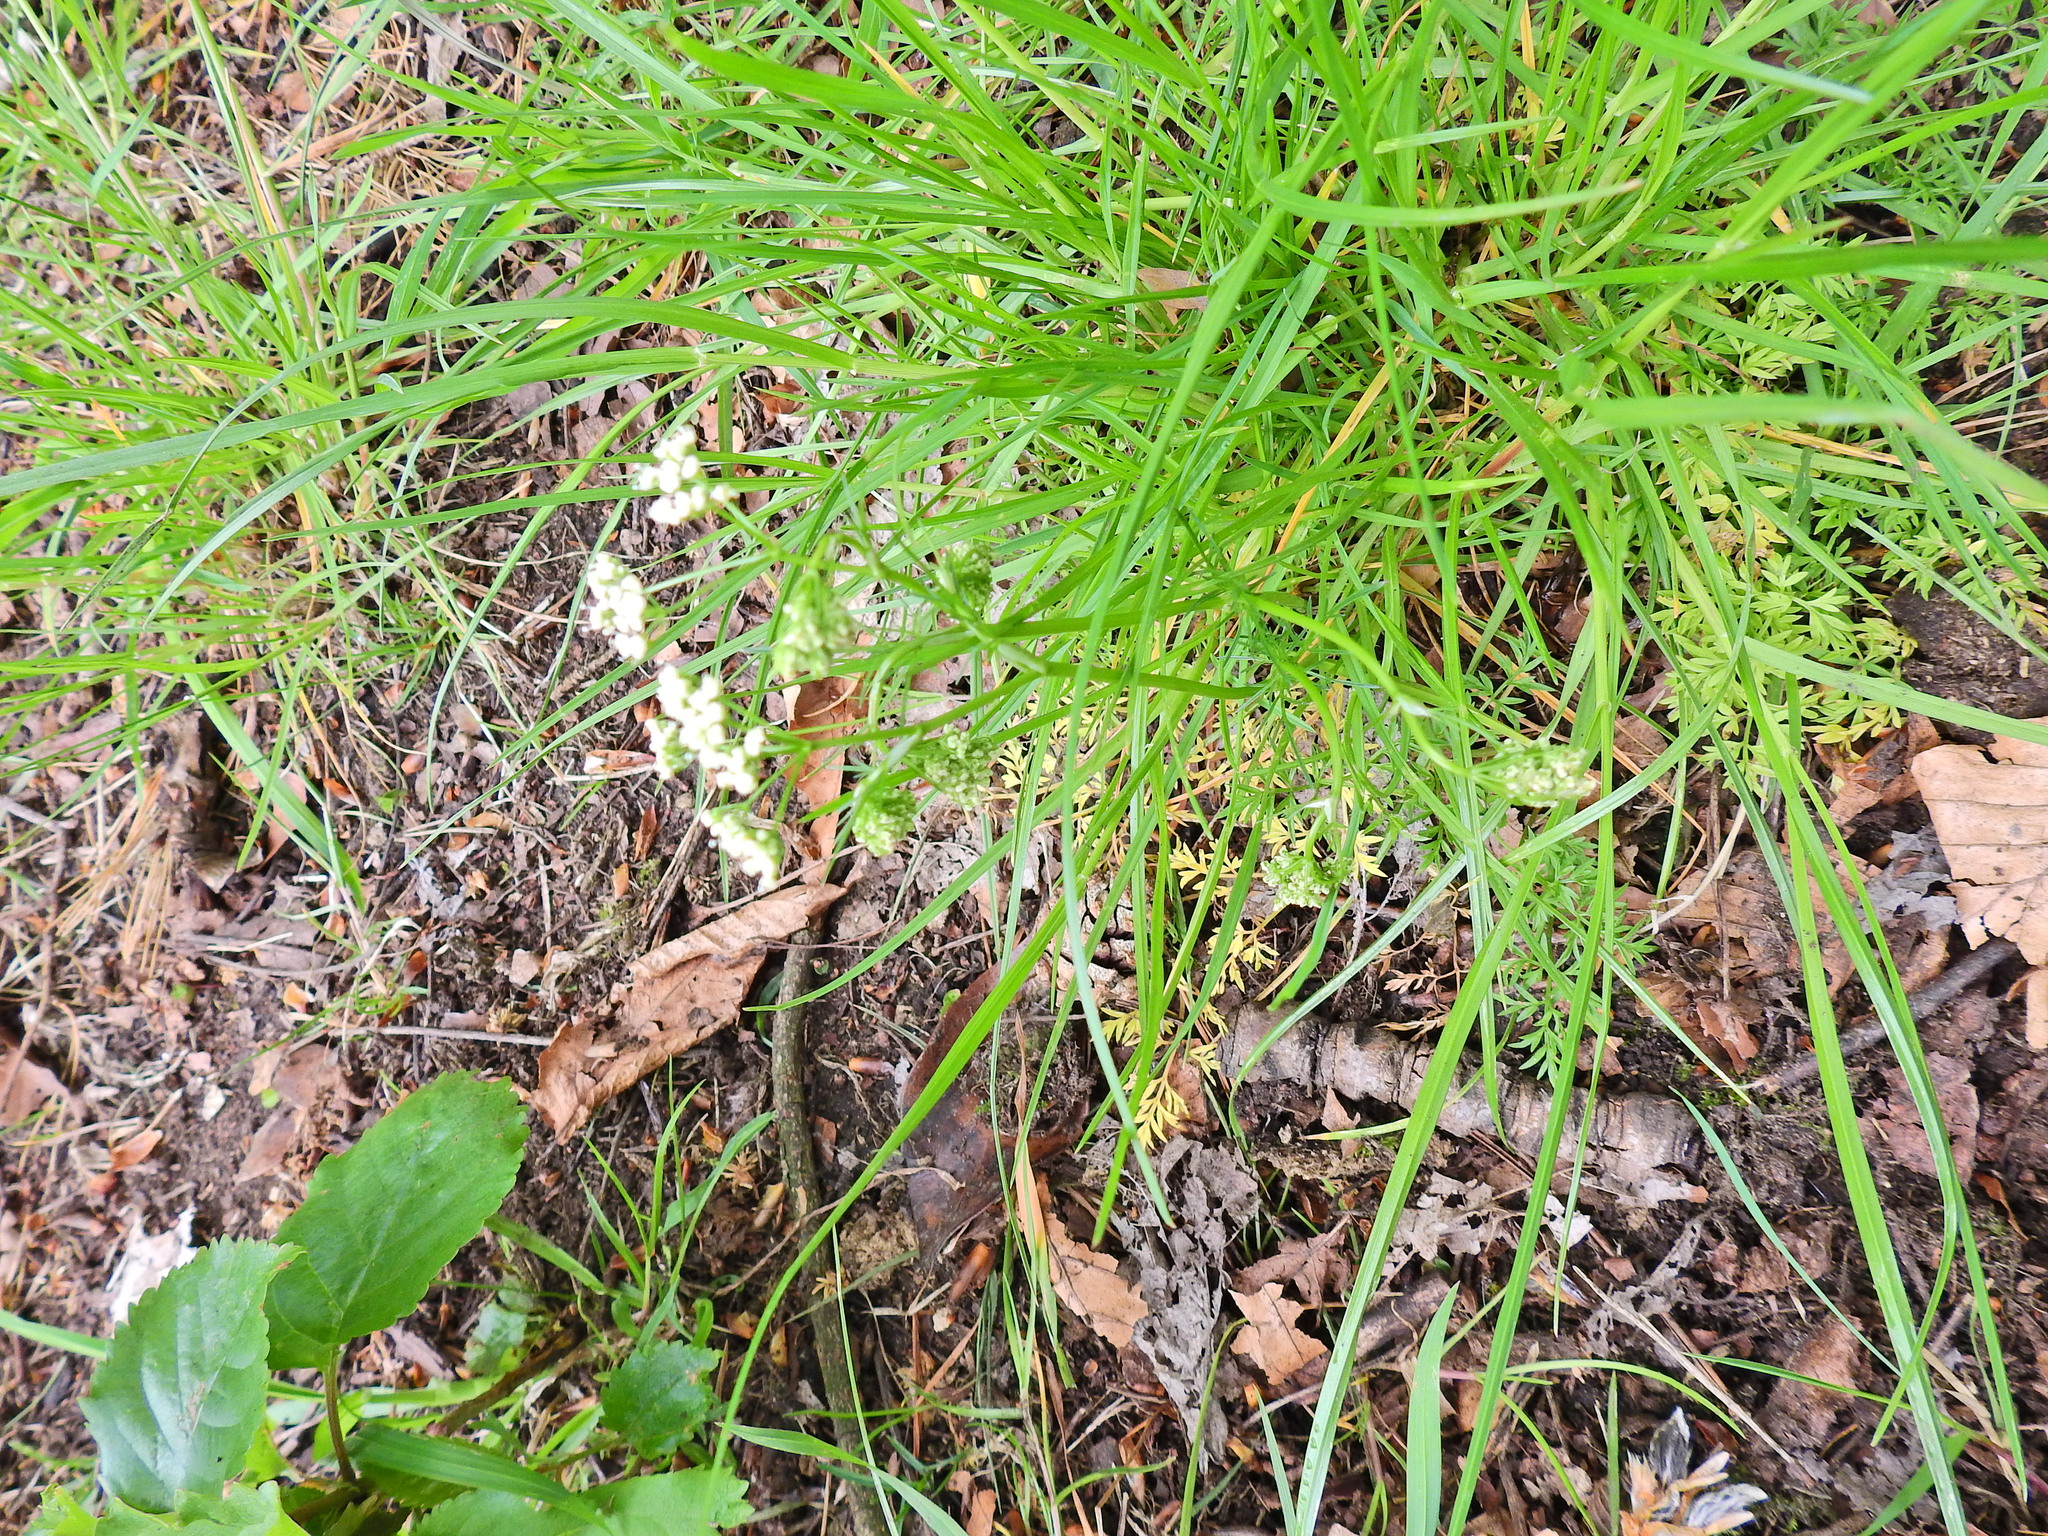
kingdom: Plantae
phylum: Tracheophyta
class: Magnoliopsida
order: Apiales
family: Apiaceae
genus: Conopodium
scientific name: Conopodium majus
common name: Pignut
